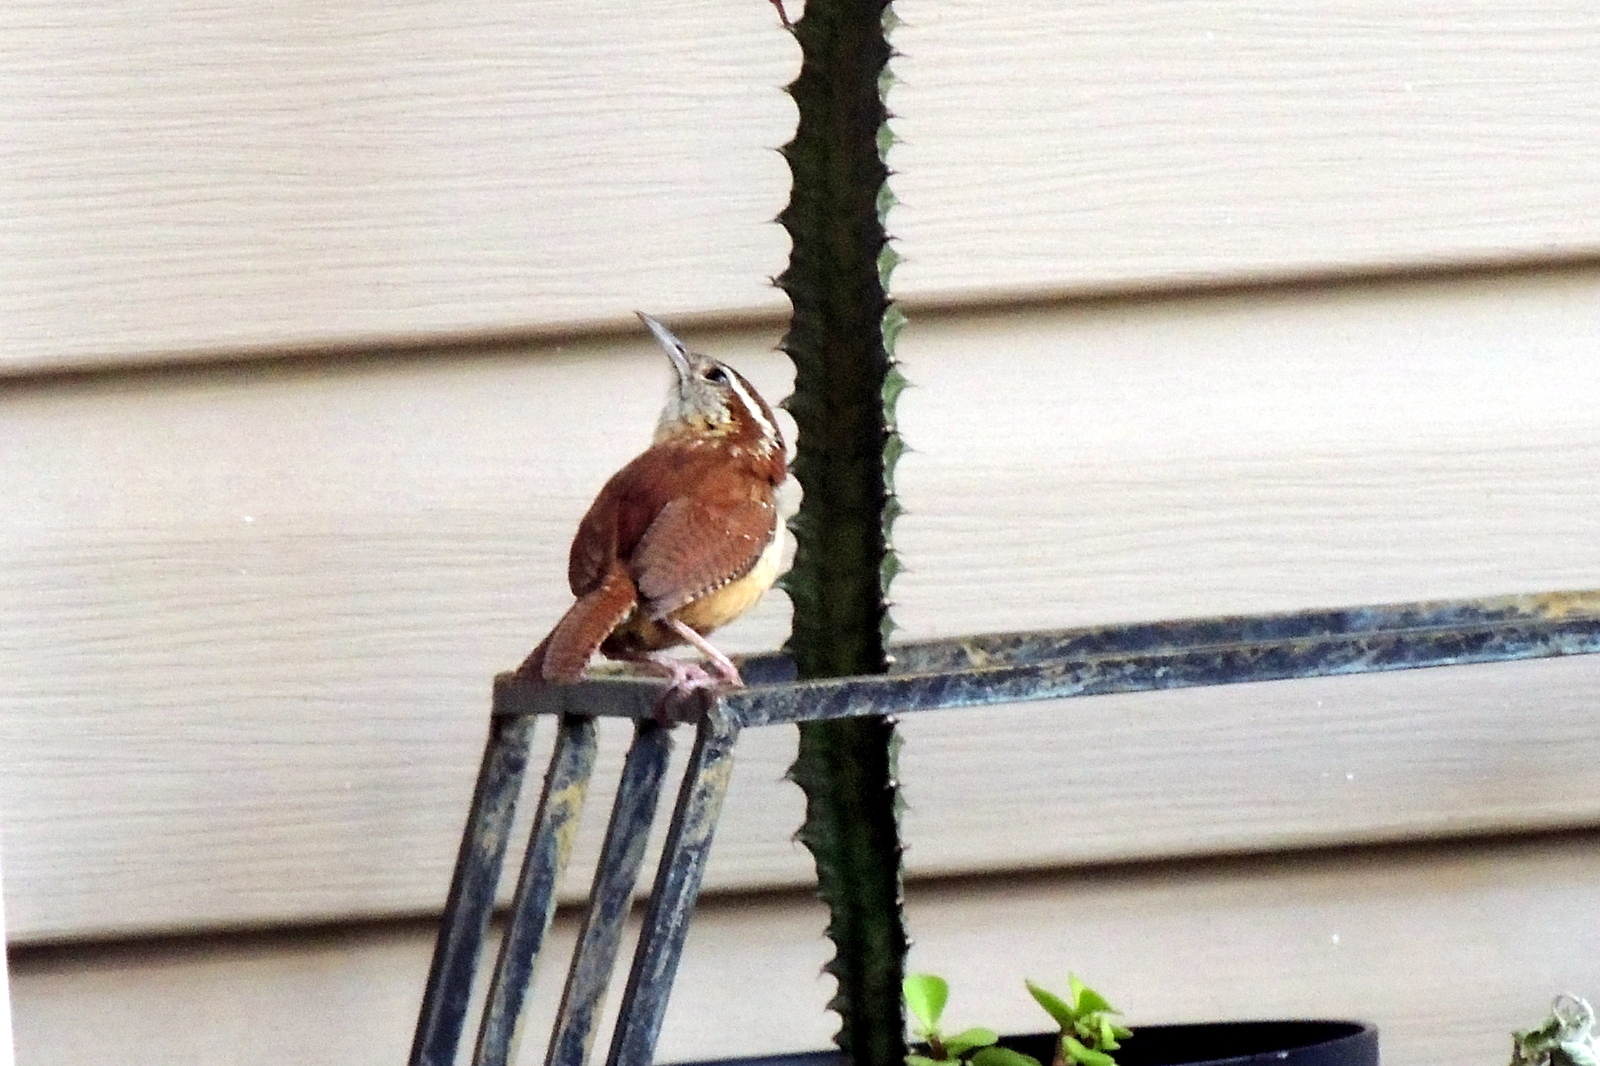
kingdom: Animalia
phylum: Chordata
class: Aves
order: Passeriformes
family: Troglodytidae
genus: Thryothorus
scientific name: Thryothorus ludovicianus
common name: Carolina wren
